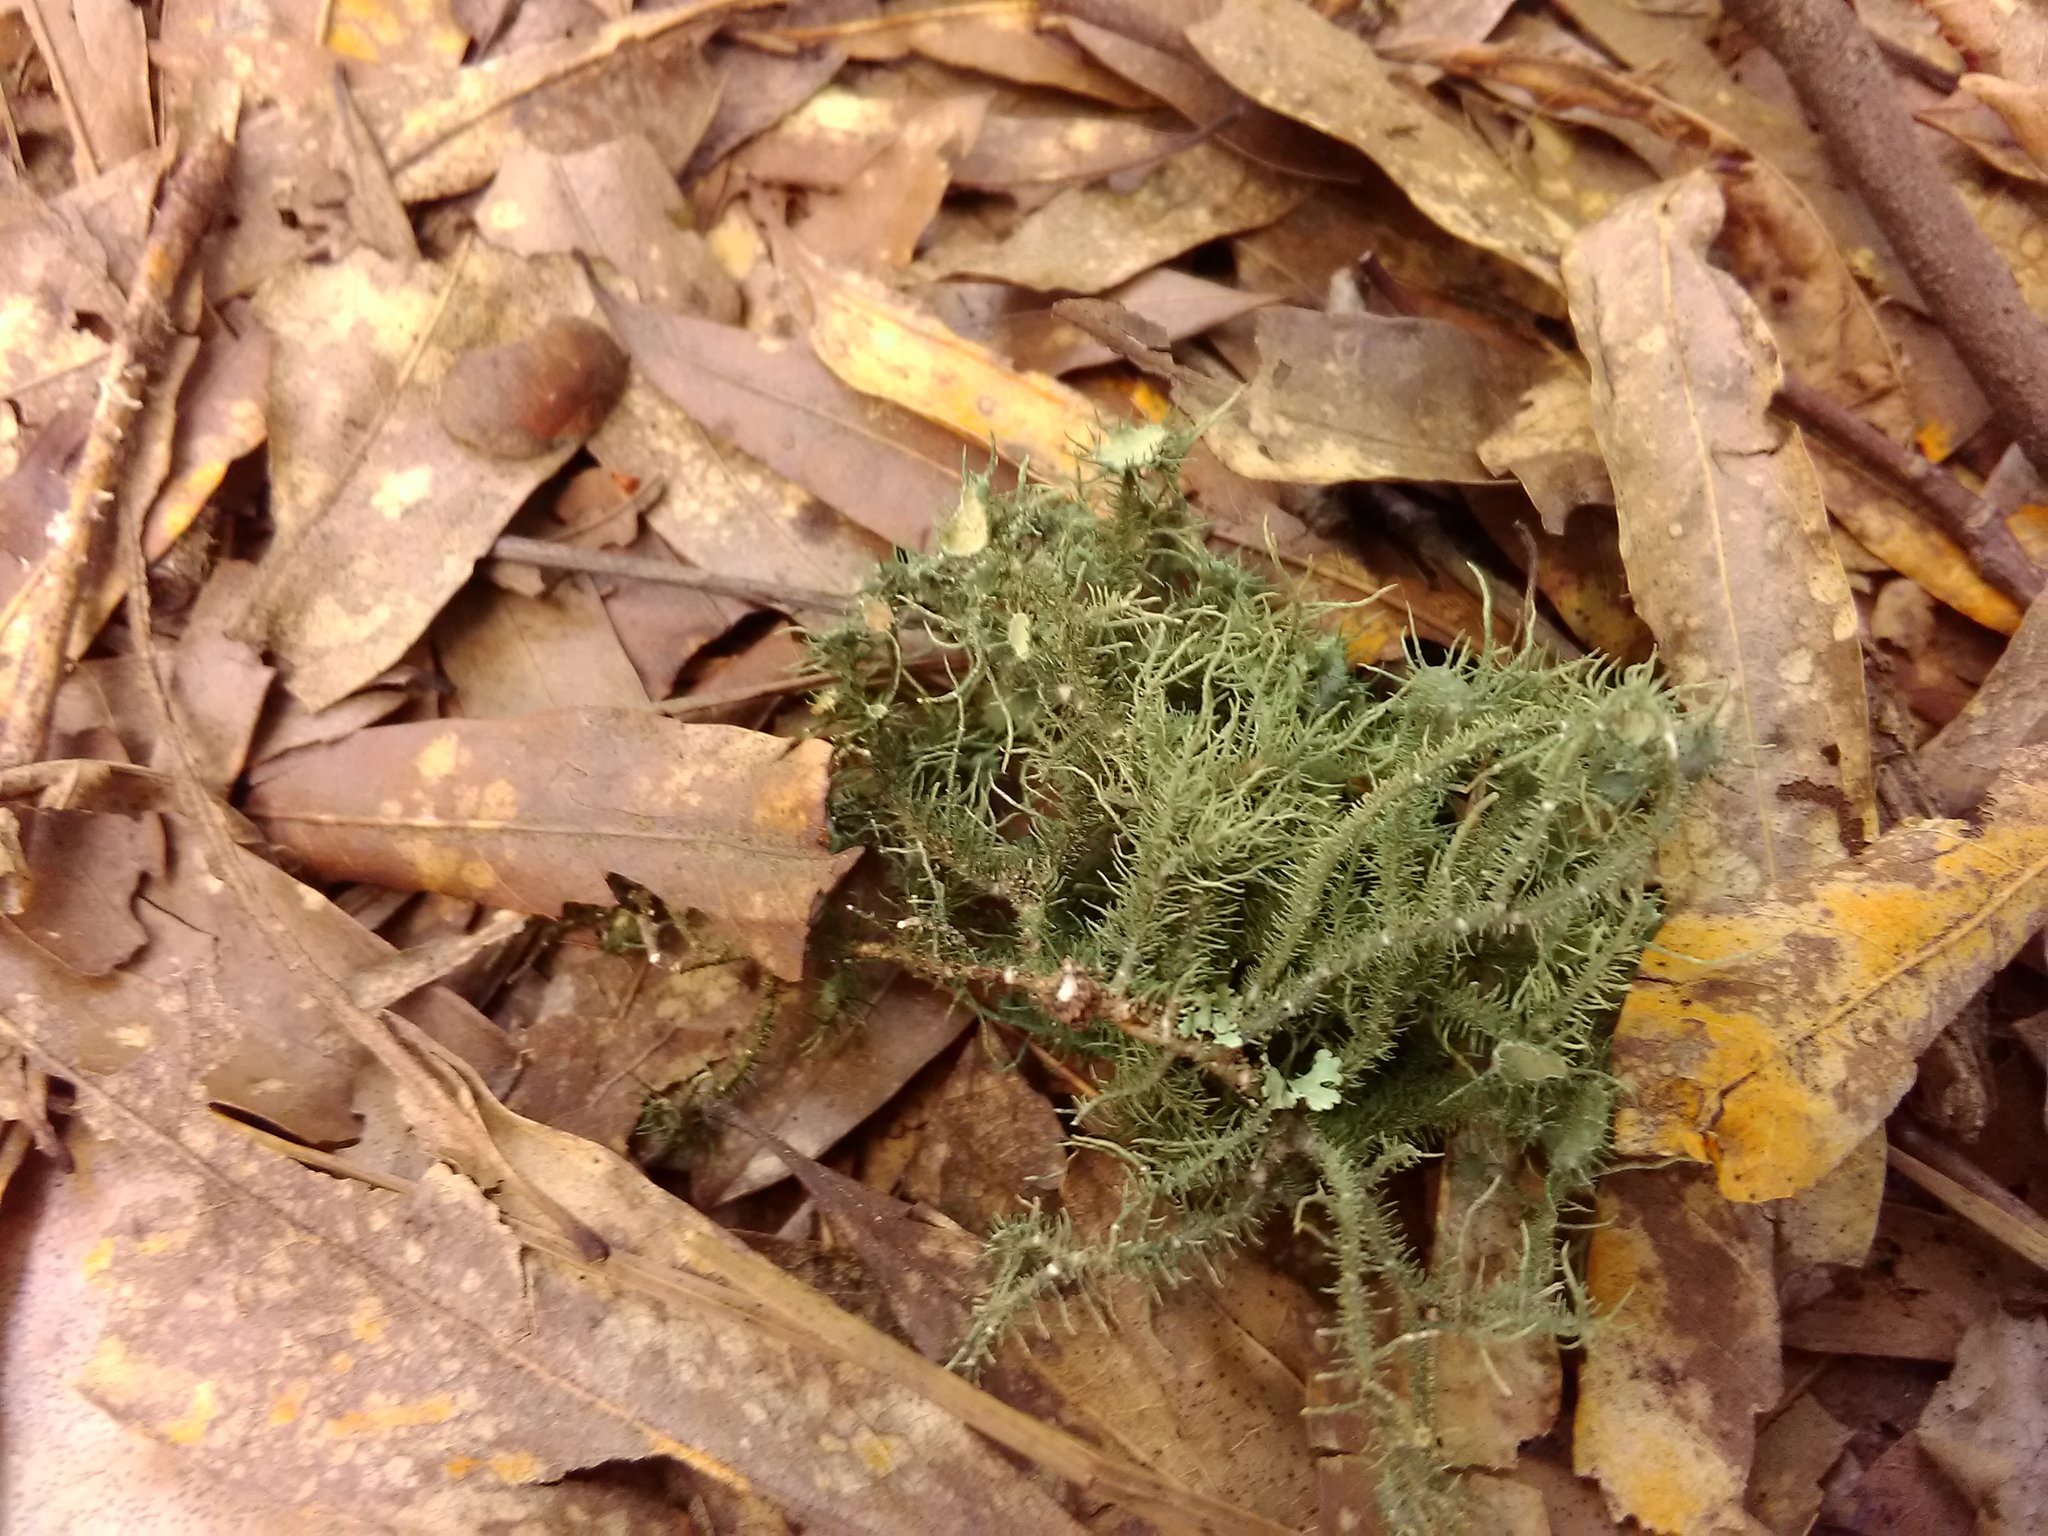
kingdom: Fungi
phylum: Ascomycota
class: Lecanoromycetes
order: Lecanorales
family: Parmeliaceae
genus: Usnea
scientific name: Usnea strigosa
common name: Bushy beard lichen
